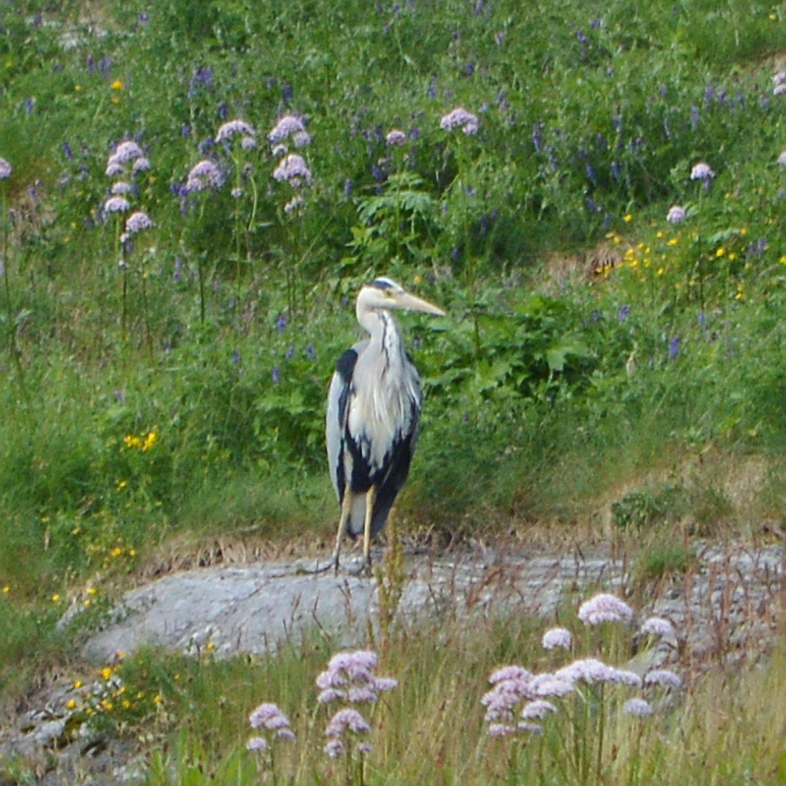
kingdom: Animalia
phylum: Chordata
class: Aves
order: Pelecaniformes
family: Ardeidae
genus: Ardea
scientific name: Ardea cinerea
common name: Grey heron
